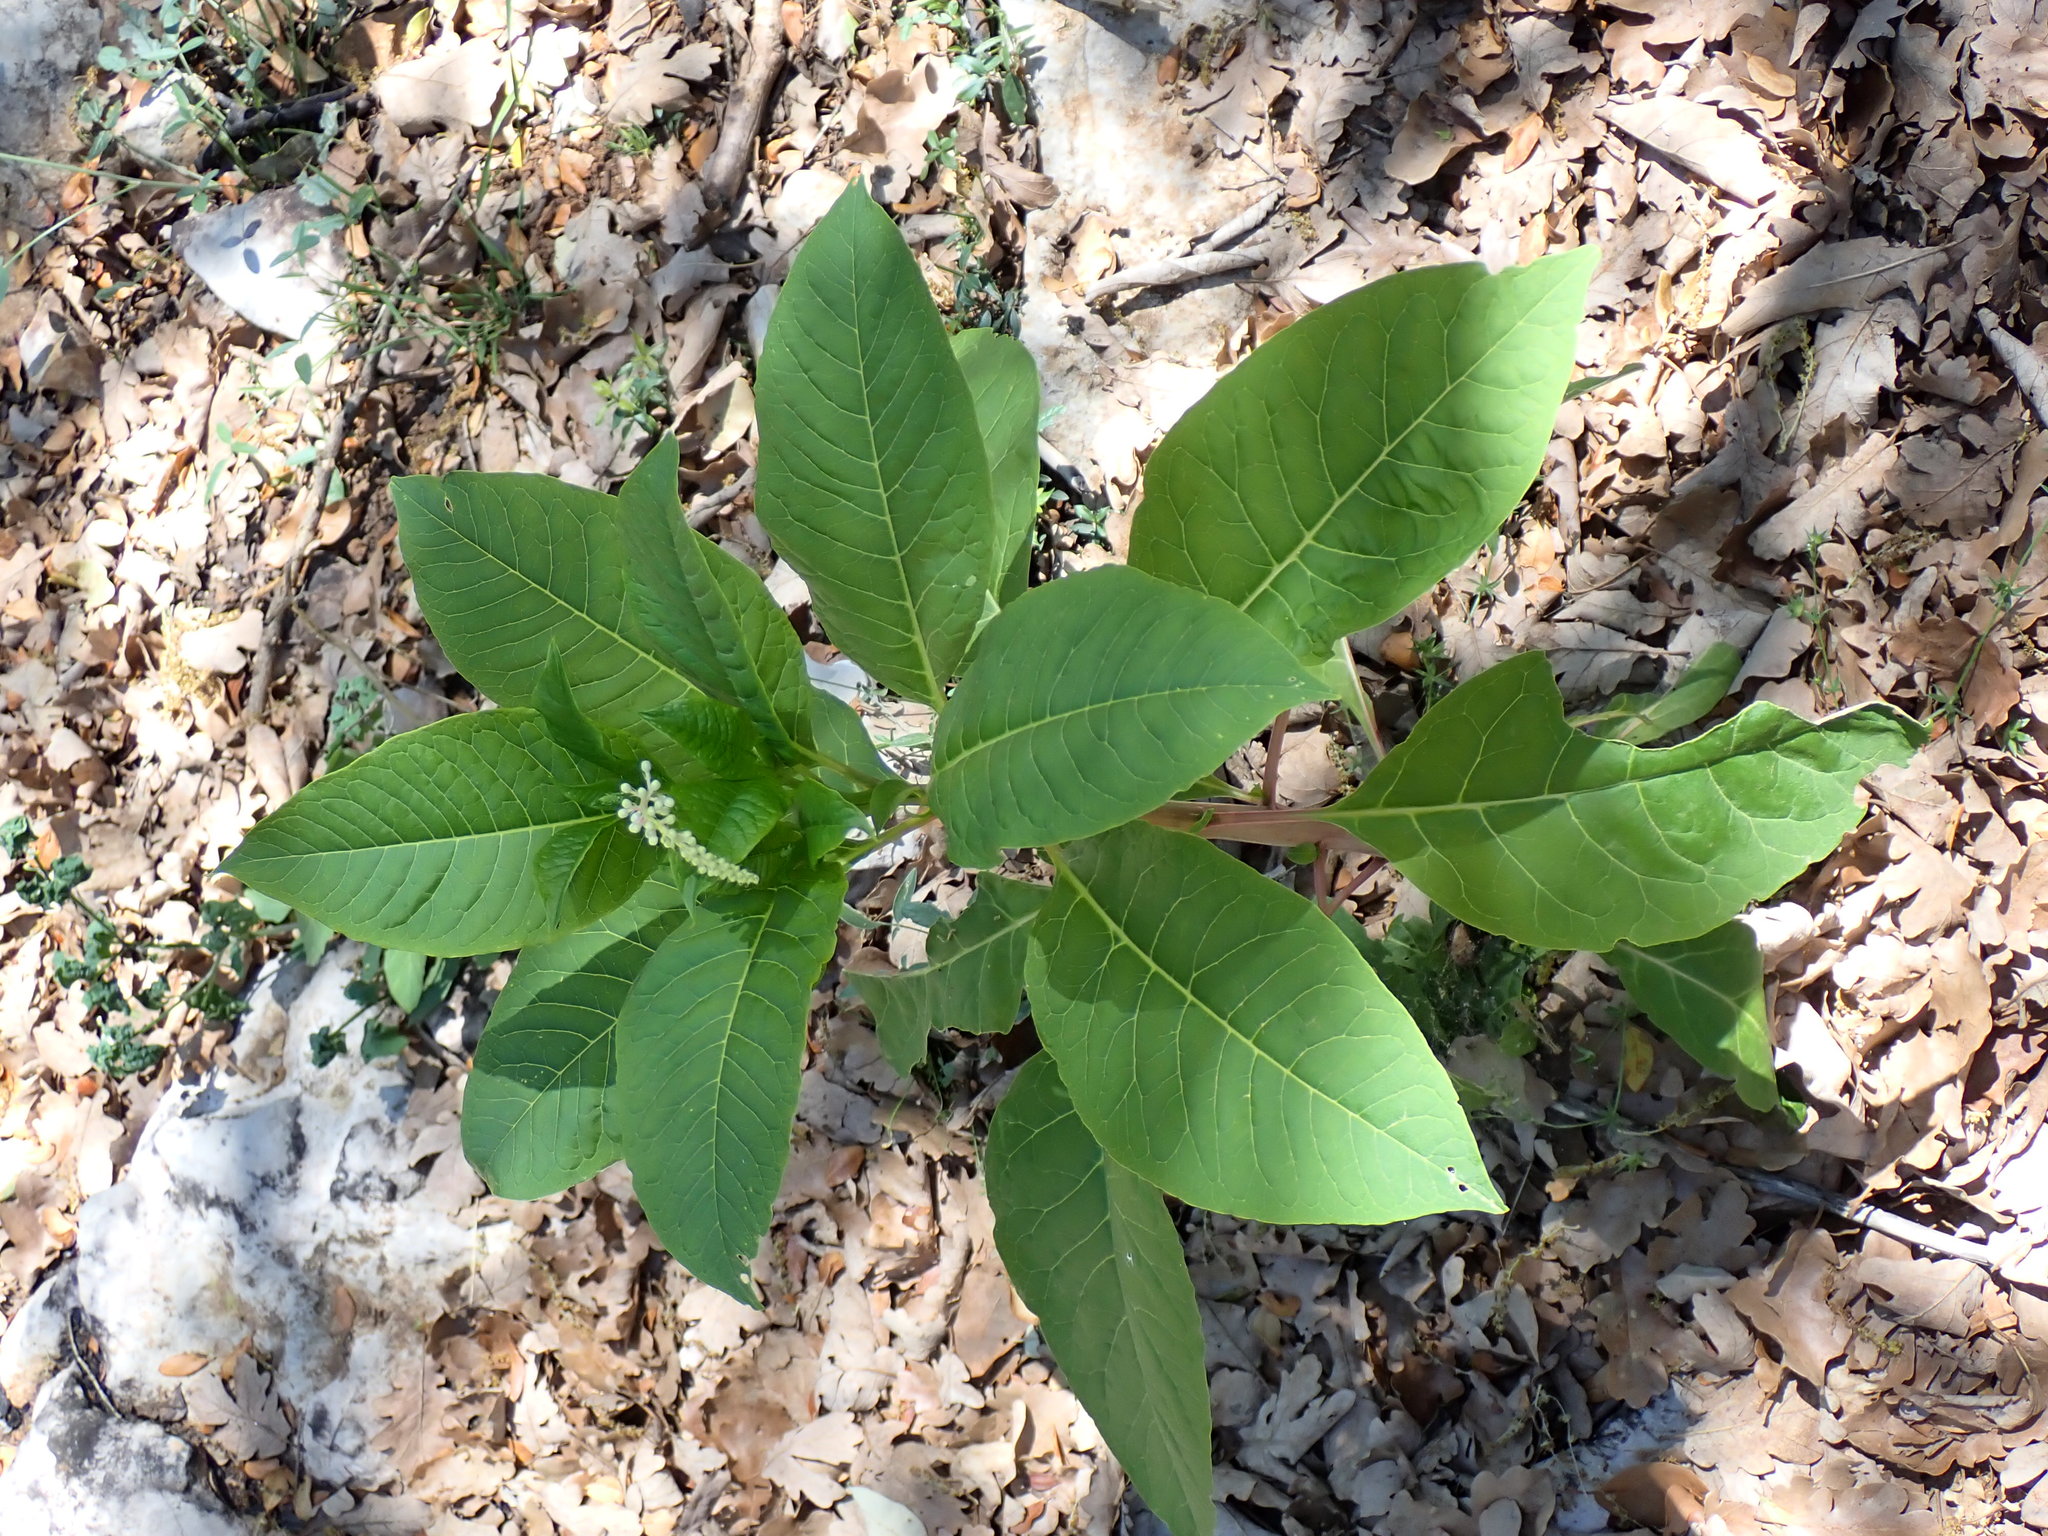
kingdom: Plantae
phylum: Tracheophyta
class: Magnoliopsida
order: Caryophyllales
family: Phytolaccaceae
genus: Phytolacca
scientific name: Phytolacca americana
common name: American pokeweed
